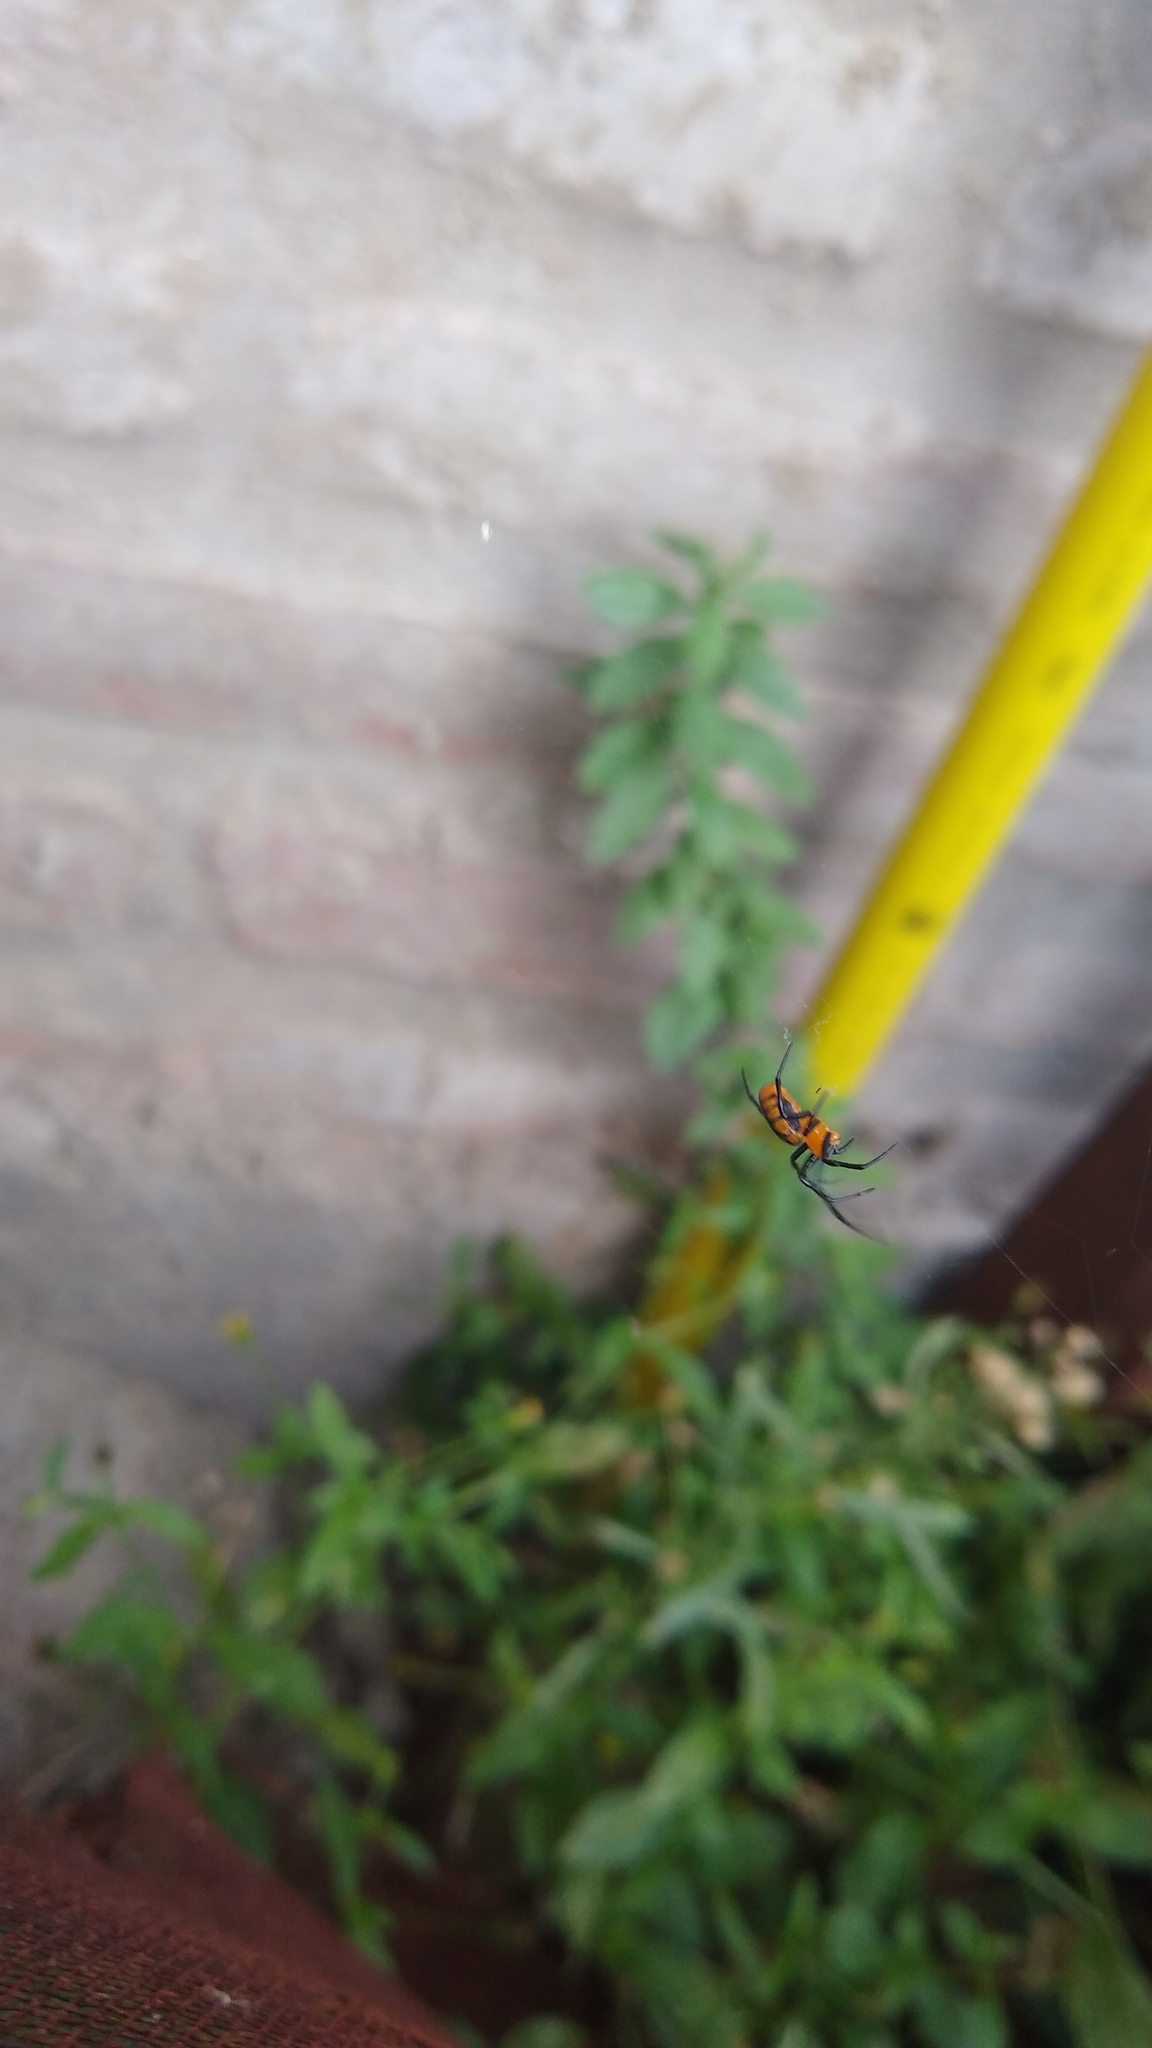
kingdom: Animalia
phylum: Arthropoda
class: Arachnida
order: Araneae
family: Araneidae
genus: Alpaida
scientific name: Alpaida latro
